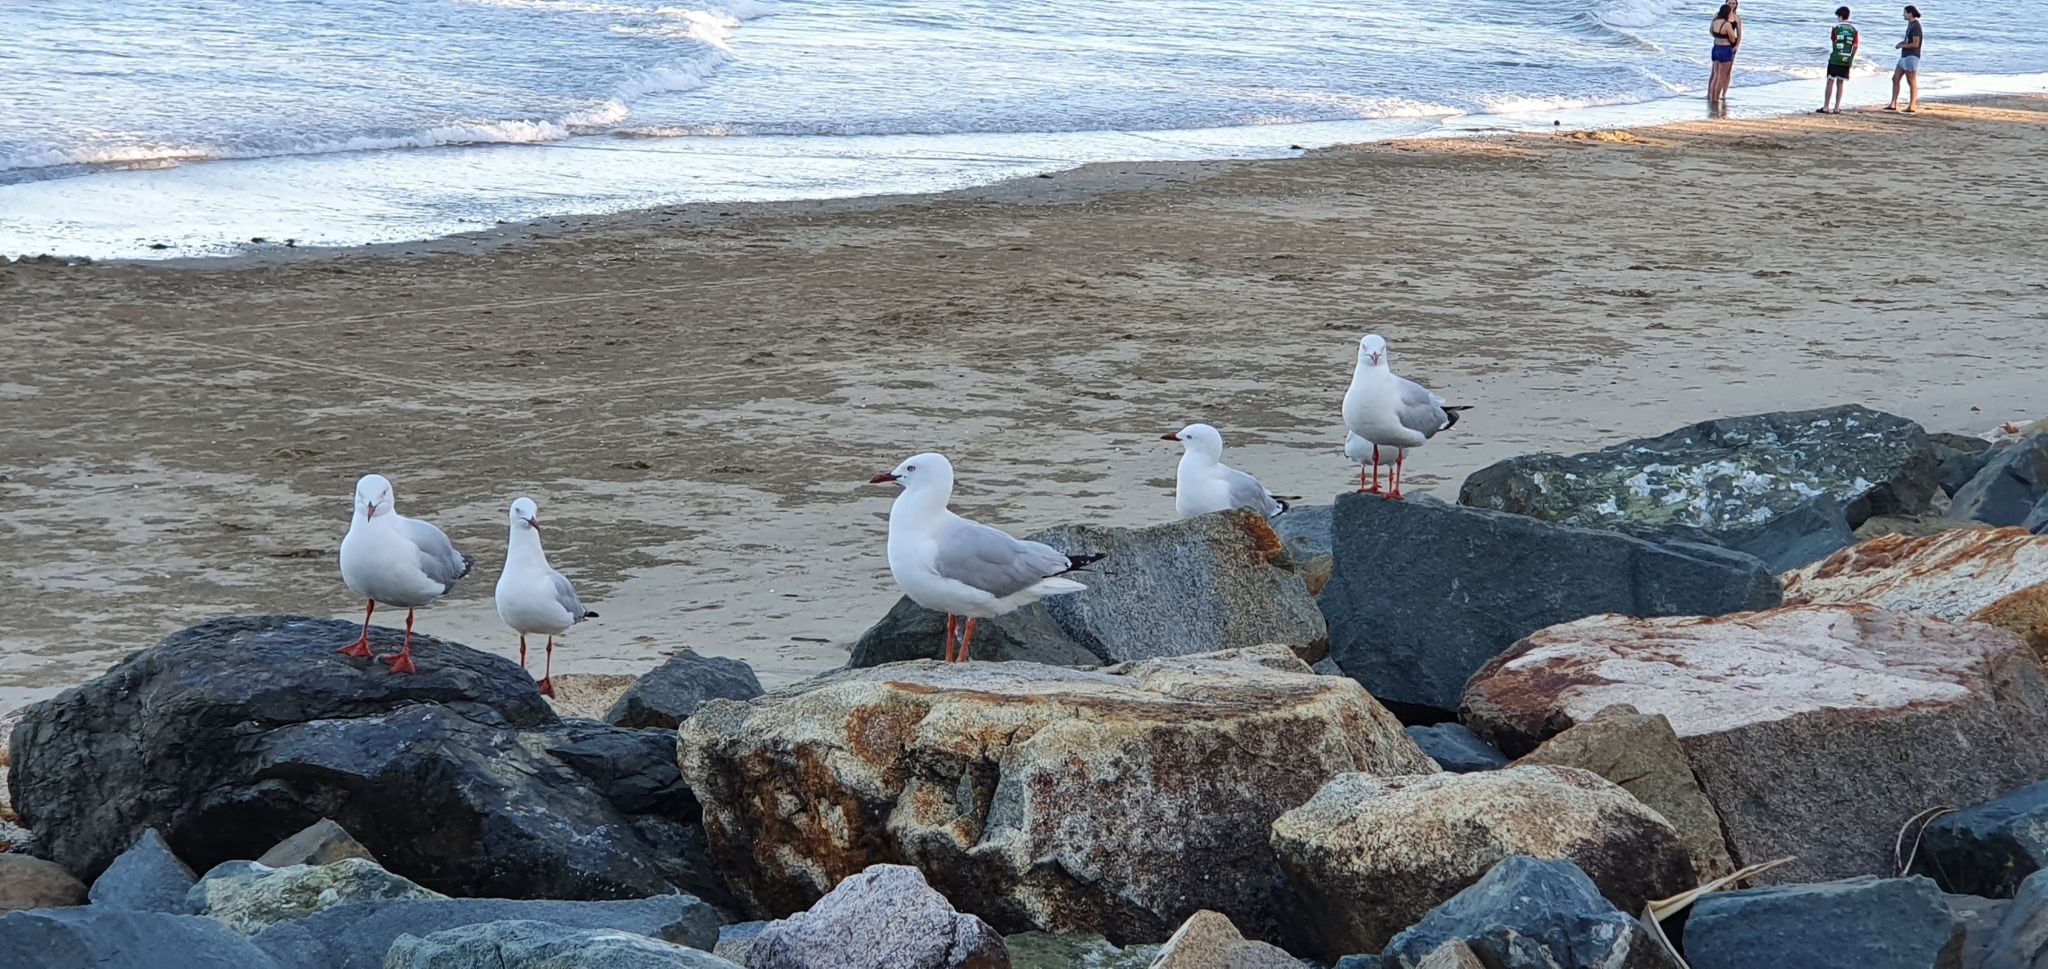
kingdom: Animalia
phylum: Chordata
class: Aves
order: Charadriiformes
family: Laridae
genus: Chroicocephalus
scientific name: Chroicocephalus novaehollandiae
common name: Silver gull
